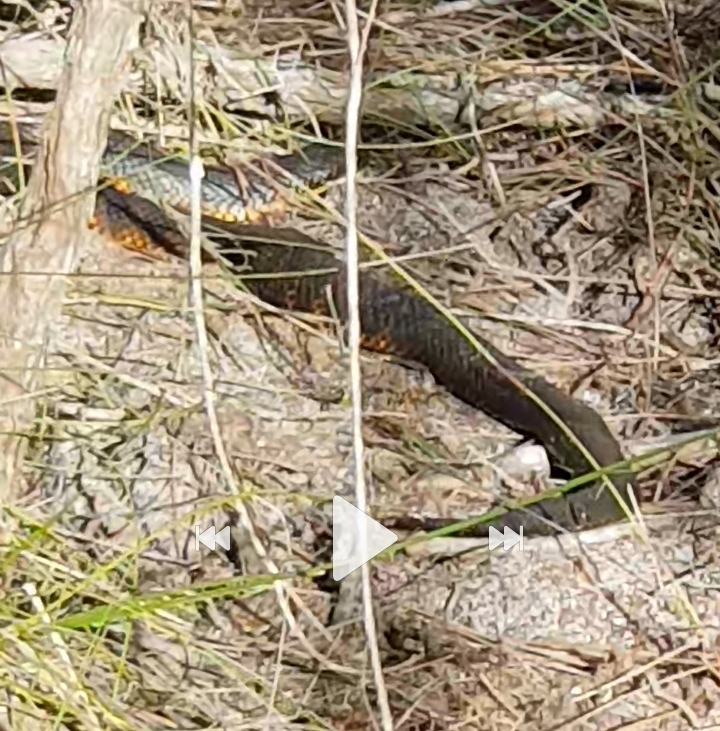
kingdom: Animalia
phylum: Chordata
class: Squamata
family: Elapidae
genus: Notechis
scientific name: Notechis scutatus
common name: Mainland tiger snake
